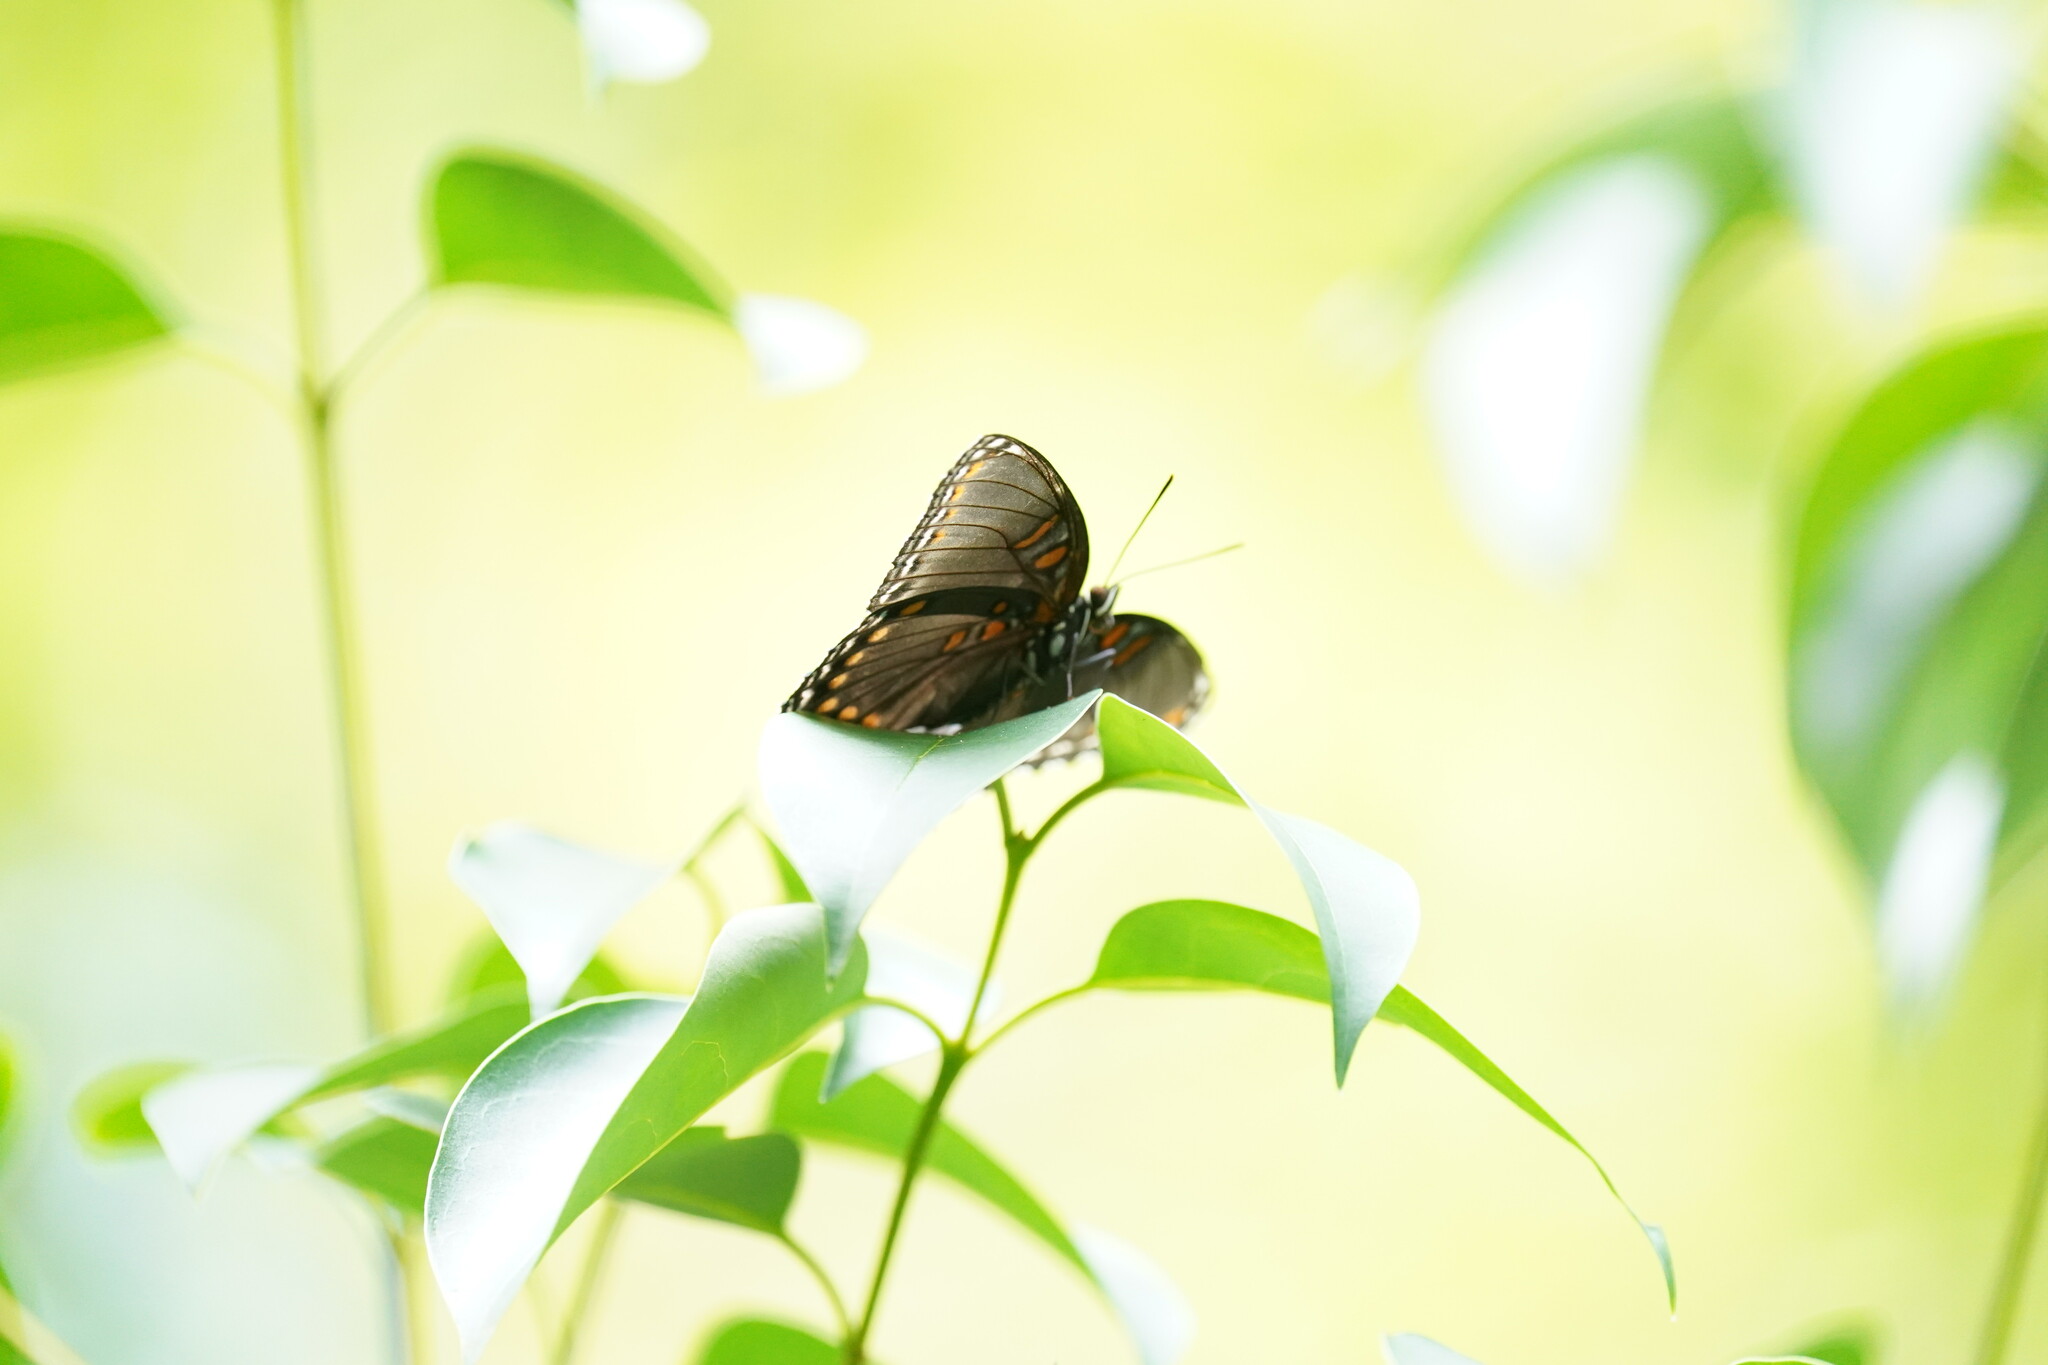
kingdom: Animalia
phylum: Arthropoda
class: Insecta
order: Lepidoptera
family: Nymphalidae
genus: Limenitis
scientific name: Limenitis arthemis
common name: Red-spotted admiral
